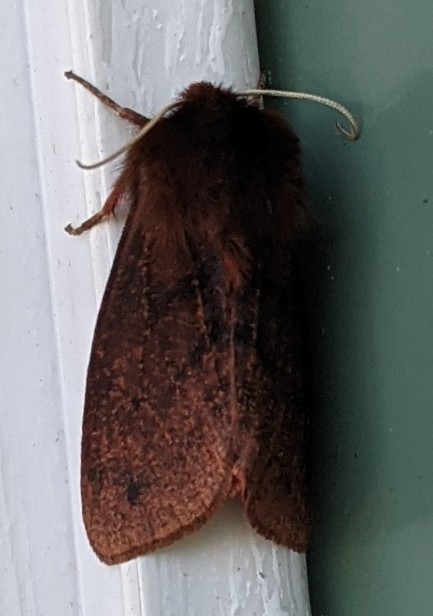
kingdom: Animalia
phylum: Arthropoda
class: Insecta
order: Lepidoptera
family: Erebidae
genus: Phragmatobia
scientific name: Phragmatobia fuliginosa
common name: Ruby tiger
